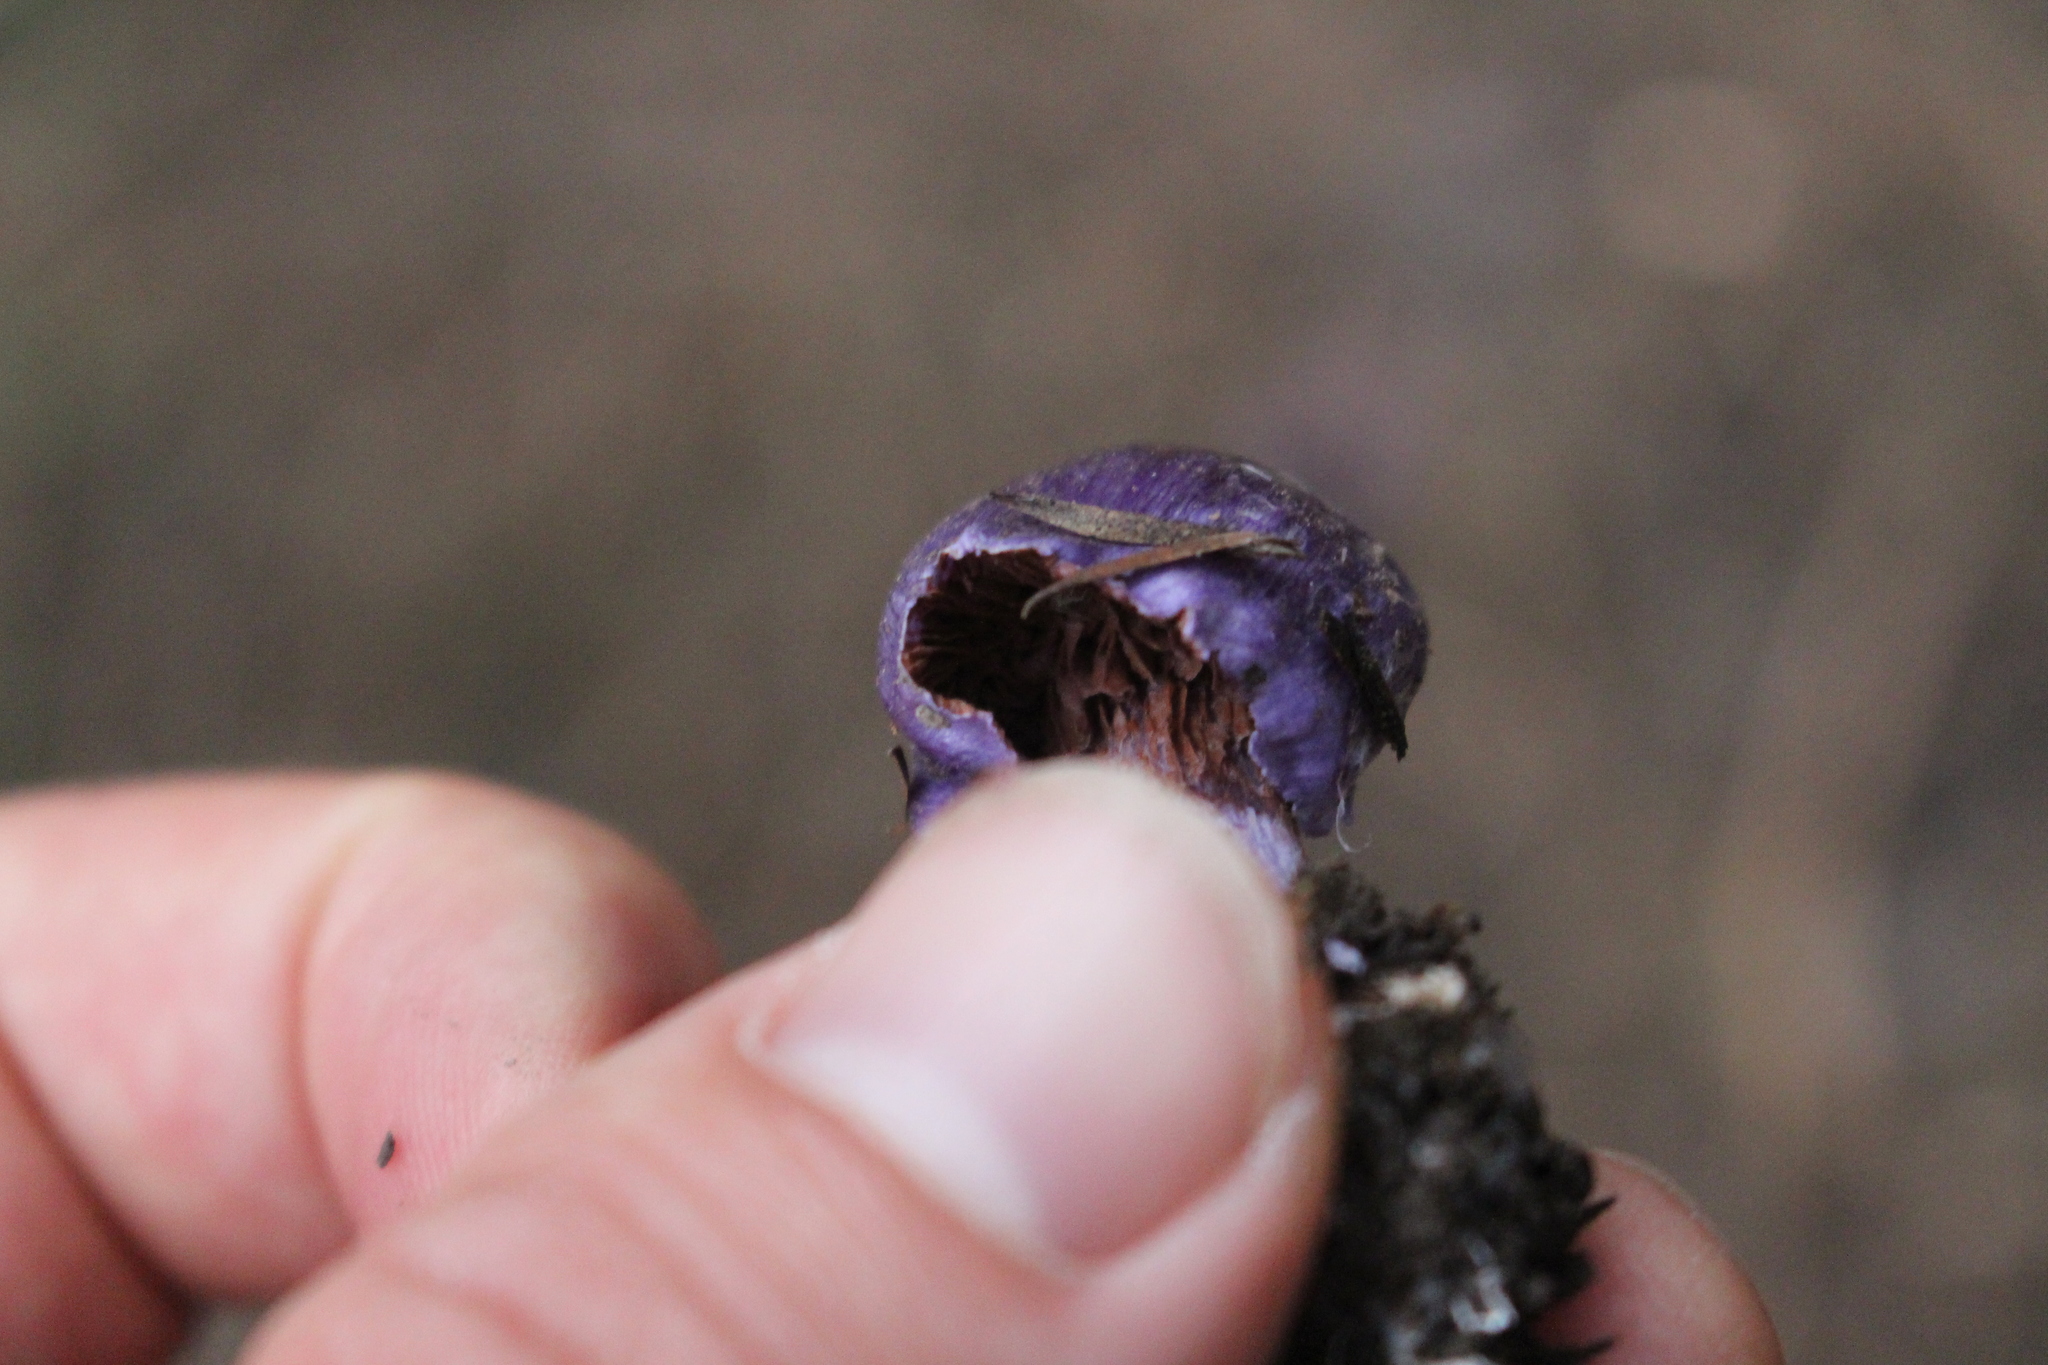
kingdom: Fungi
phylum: Basidiomycota
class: Agaricomycetes
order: Agaricales
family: Cortinariaceae
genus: Cortinarius
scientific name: Cortinarius coneae
